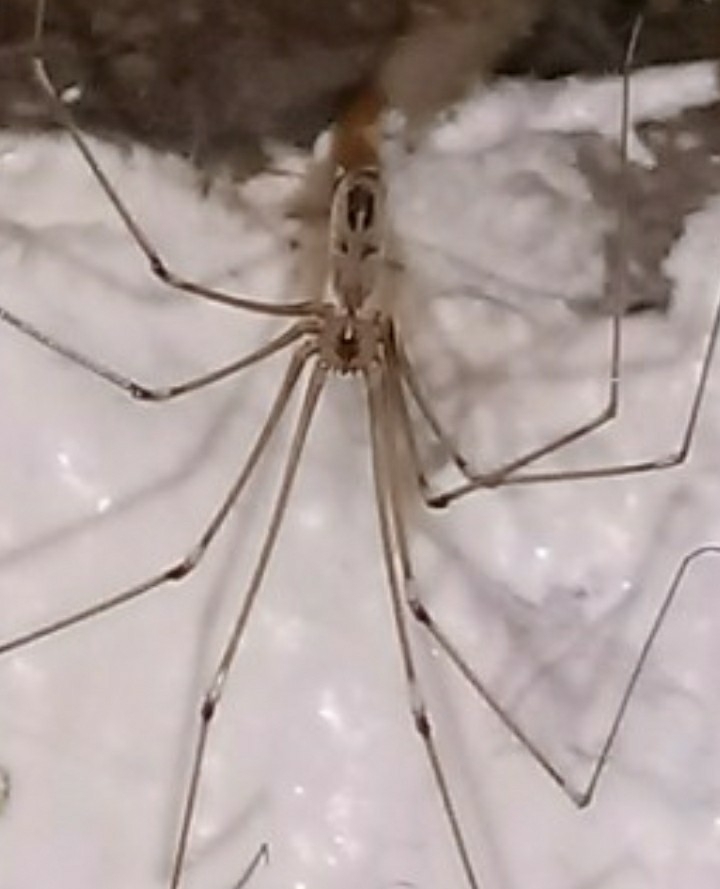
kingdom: Animalia
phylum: Arthropoda
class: Arachnida
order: Araneae
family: Pholcidae
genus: Pholcus
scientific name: Pholcus phalangioides
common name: Longbodied cellar spider
